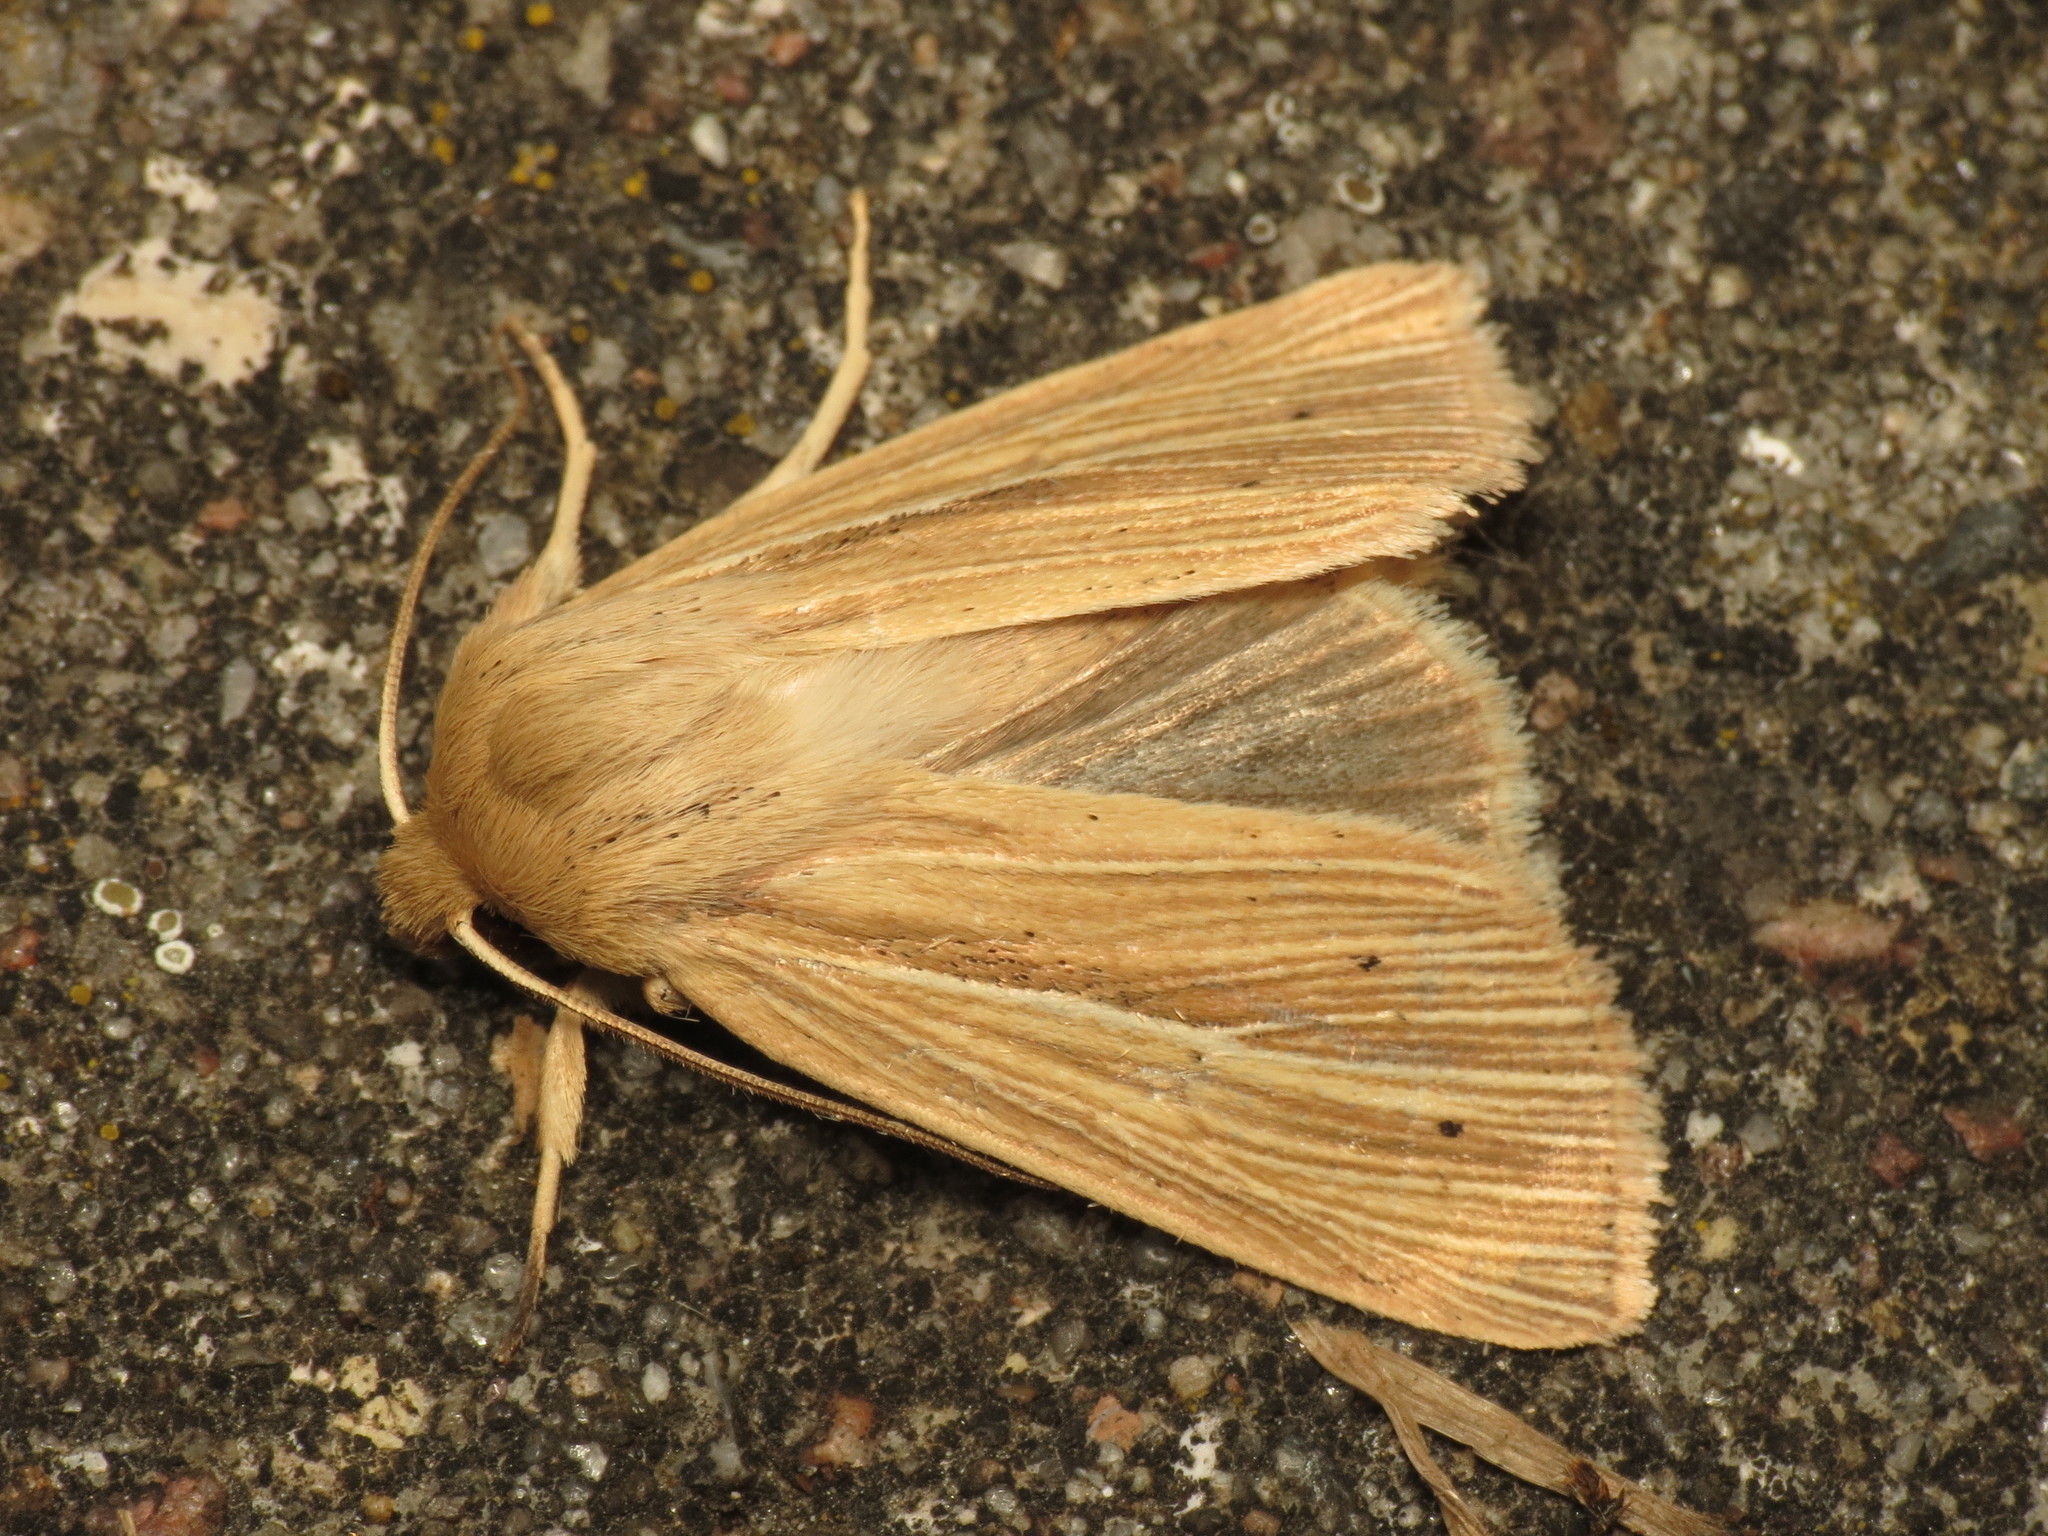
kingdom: Animalia
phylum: Arthropoda
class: Insecta
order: Lepidoptera
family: Noctuidae
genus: Mythimna
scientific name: Mythimna impura
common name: Smoky wainscot
